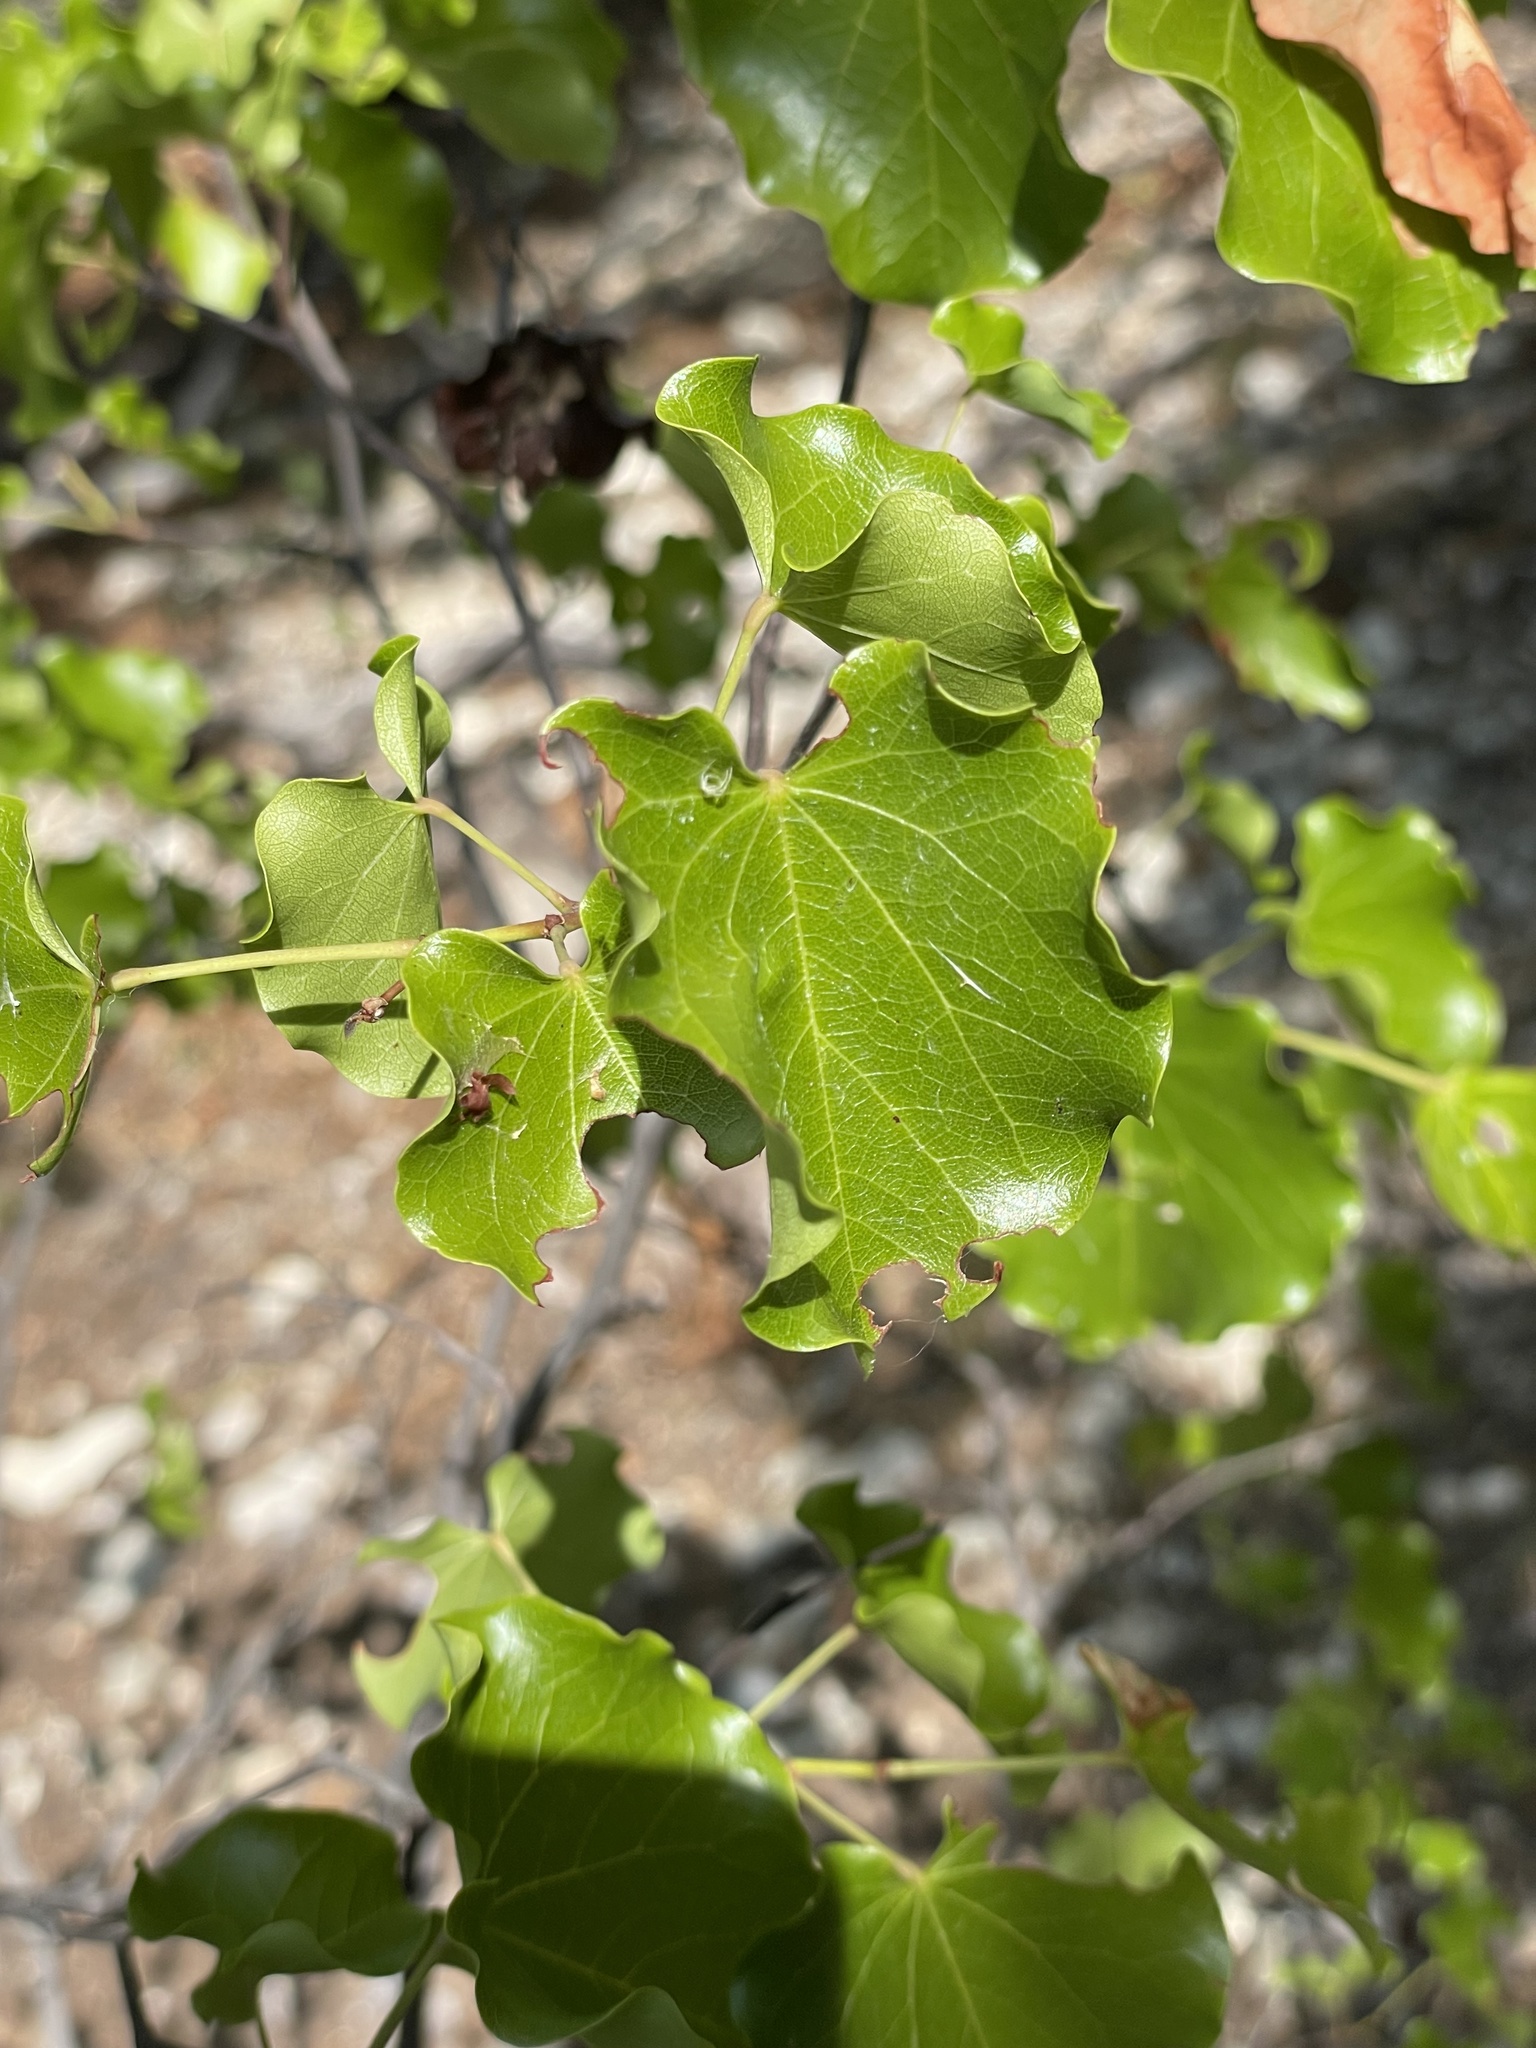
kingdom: Plantae
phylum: Tracheophyta
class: Magnoliopsida
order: Fabales
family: Fabaceae
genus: Cercis
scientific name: Cercis canadensis
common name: Eastern redbud
